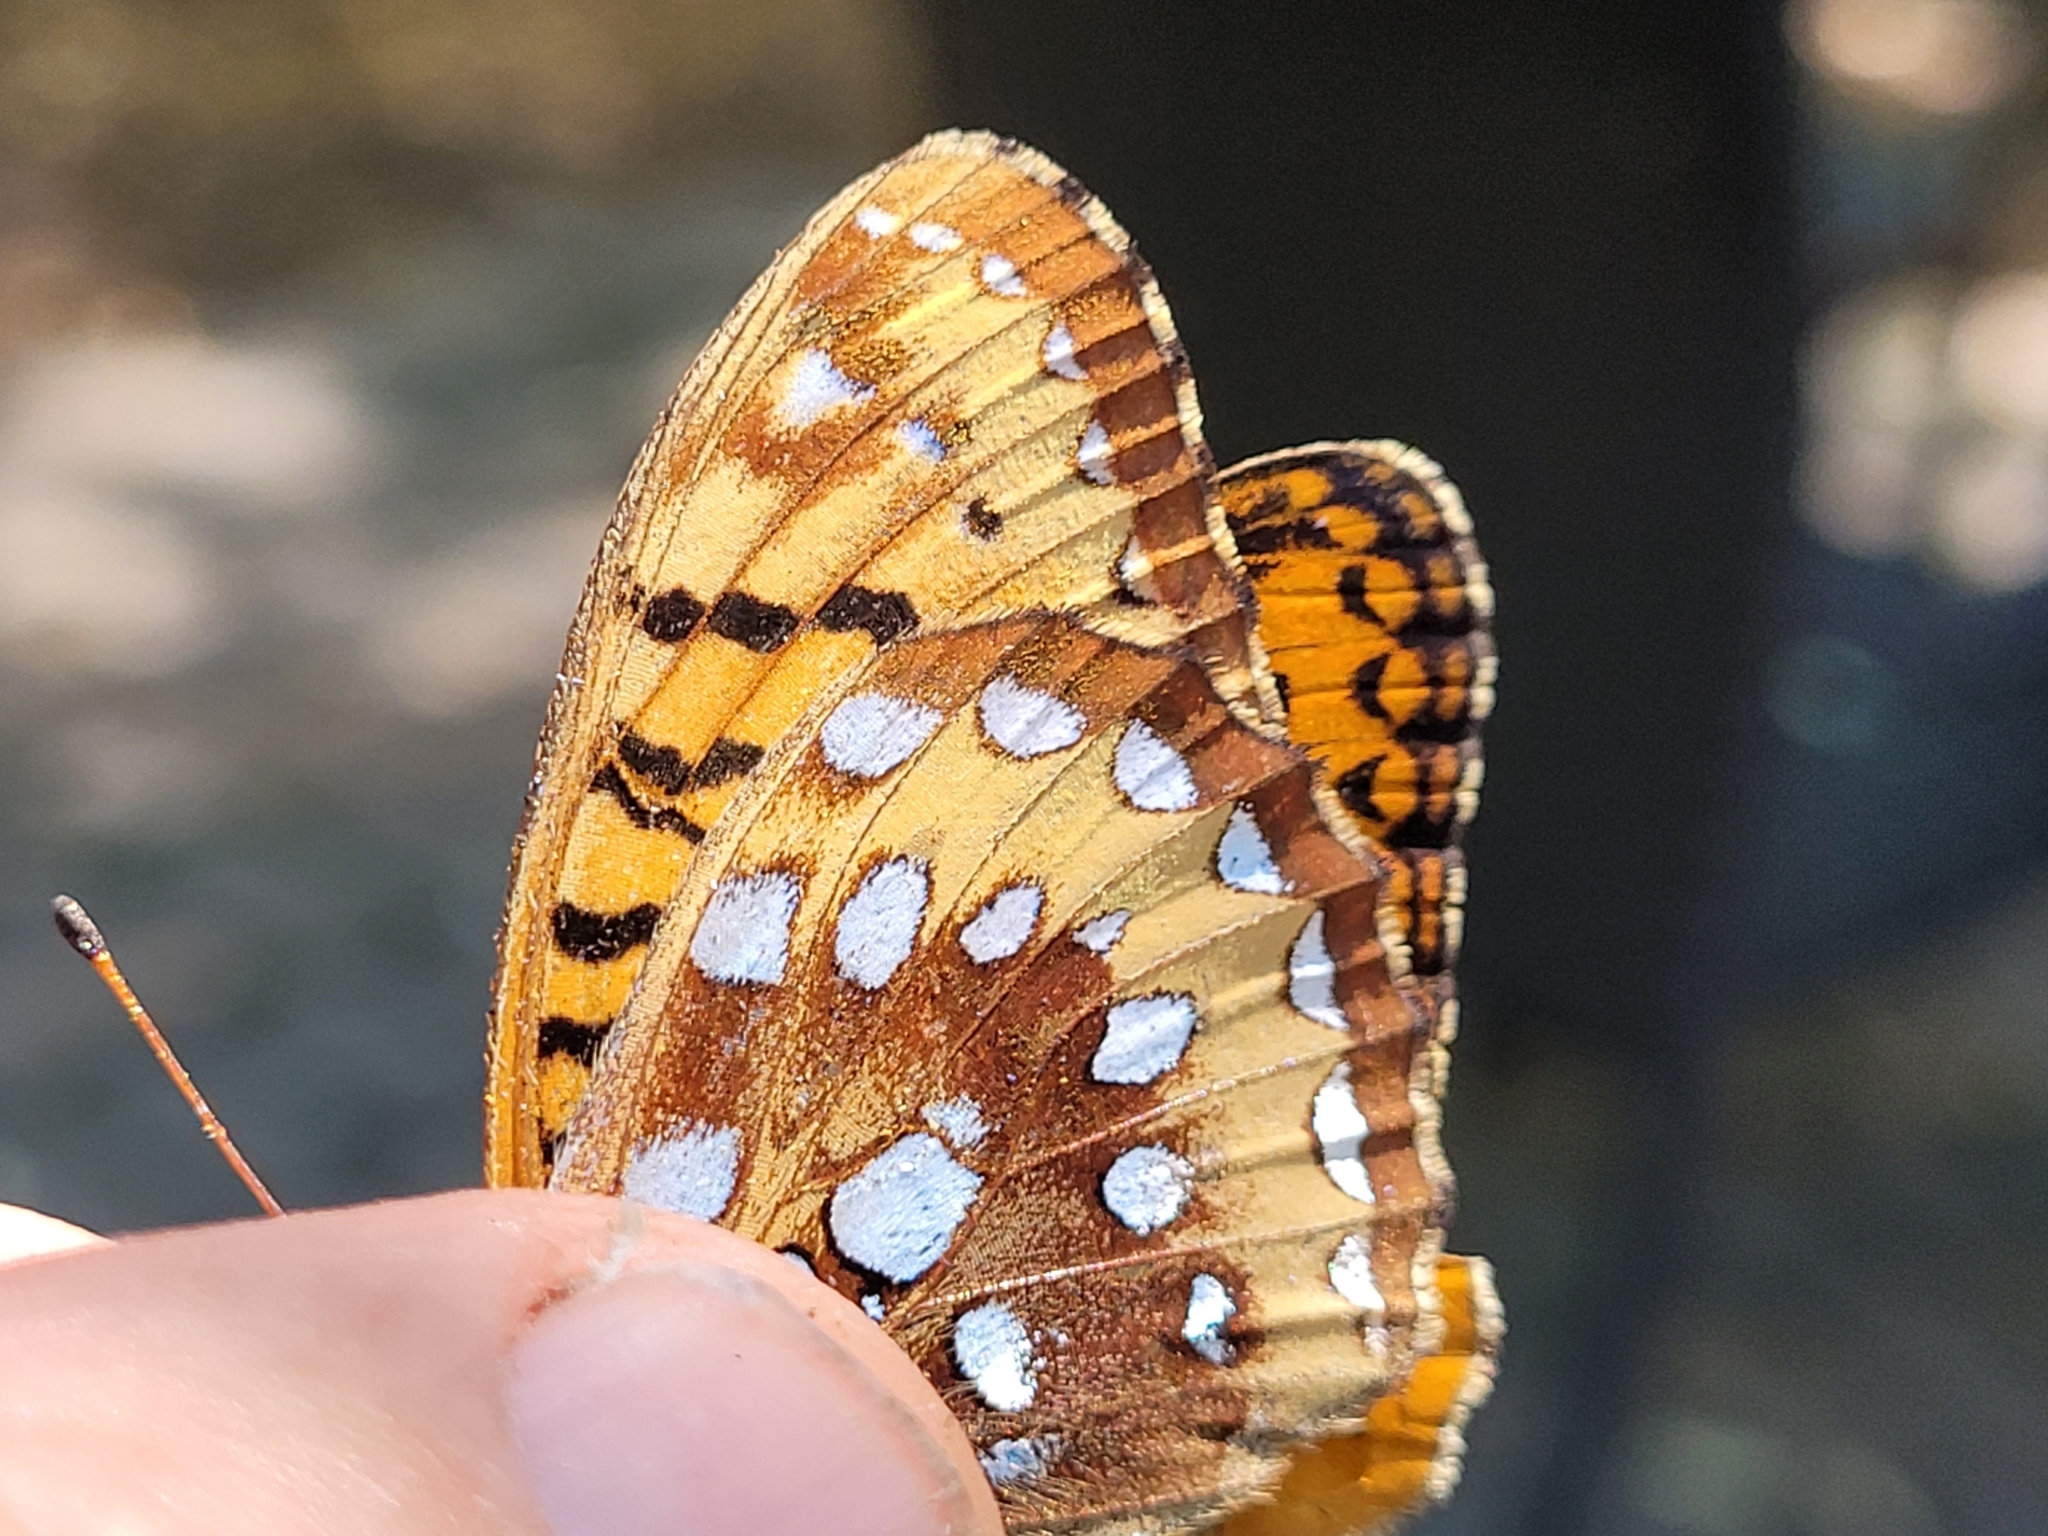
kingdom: Animalia
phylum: Arthropoda
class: Insecta
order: Lepidoptera
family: Nymphalidae
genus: Speyeria
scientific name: Speyeria cybele
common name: Great spangled fritillary
